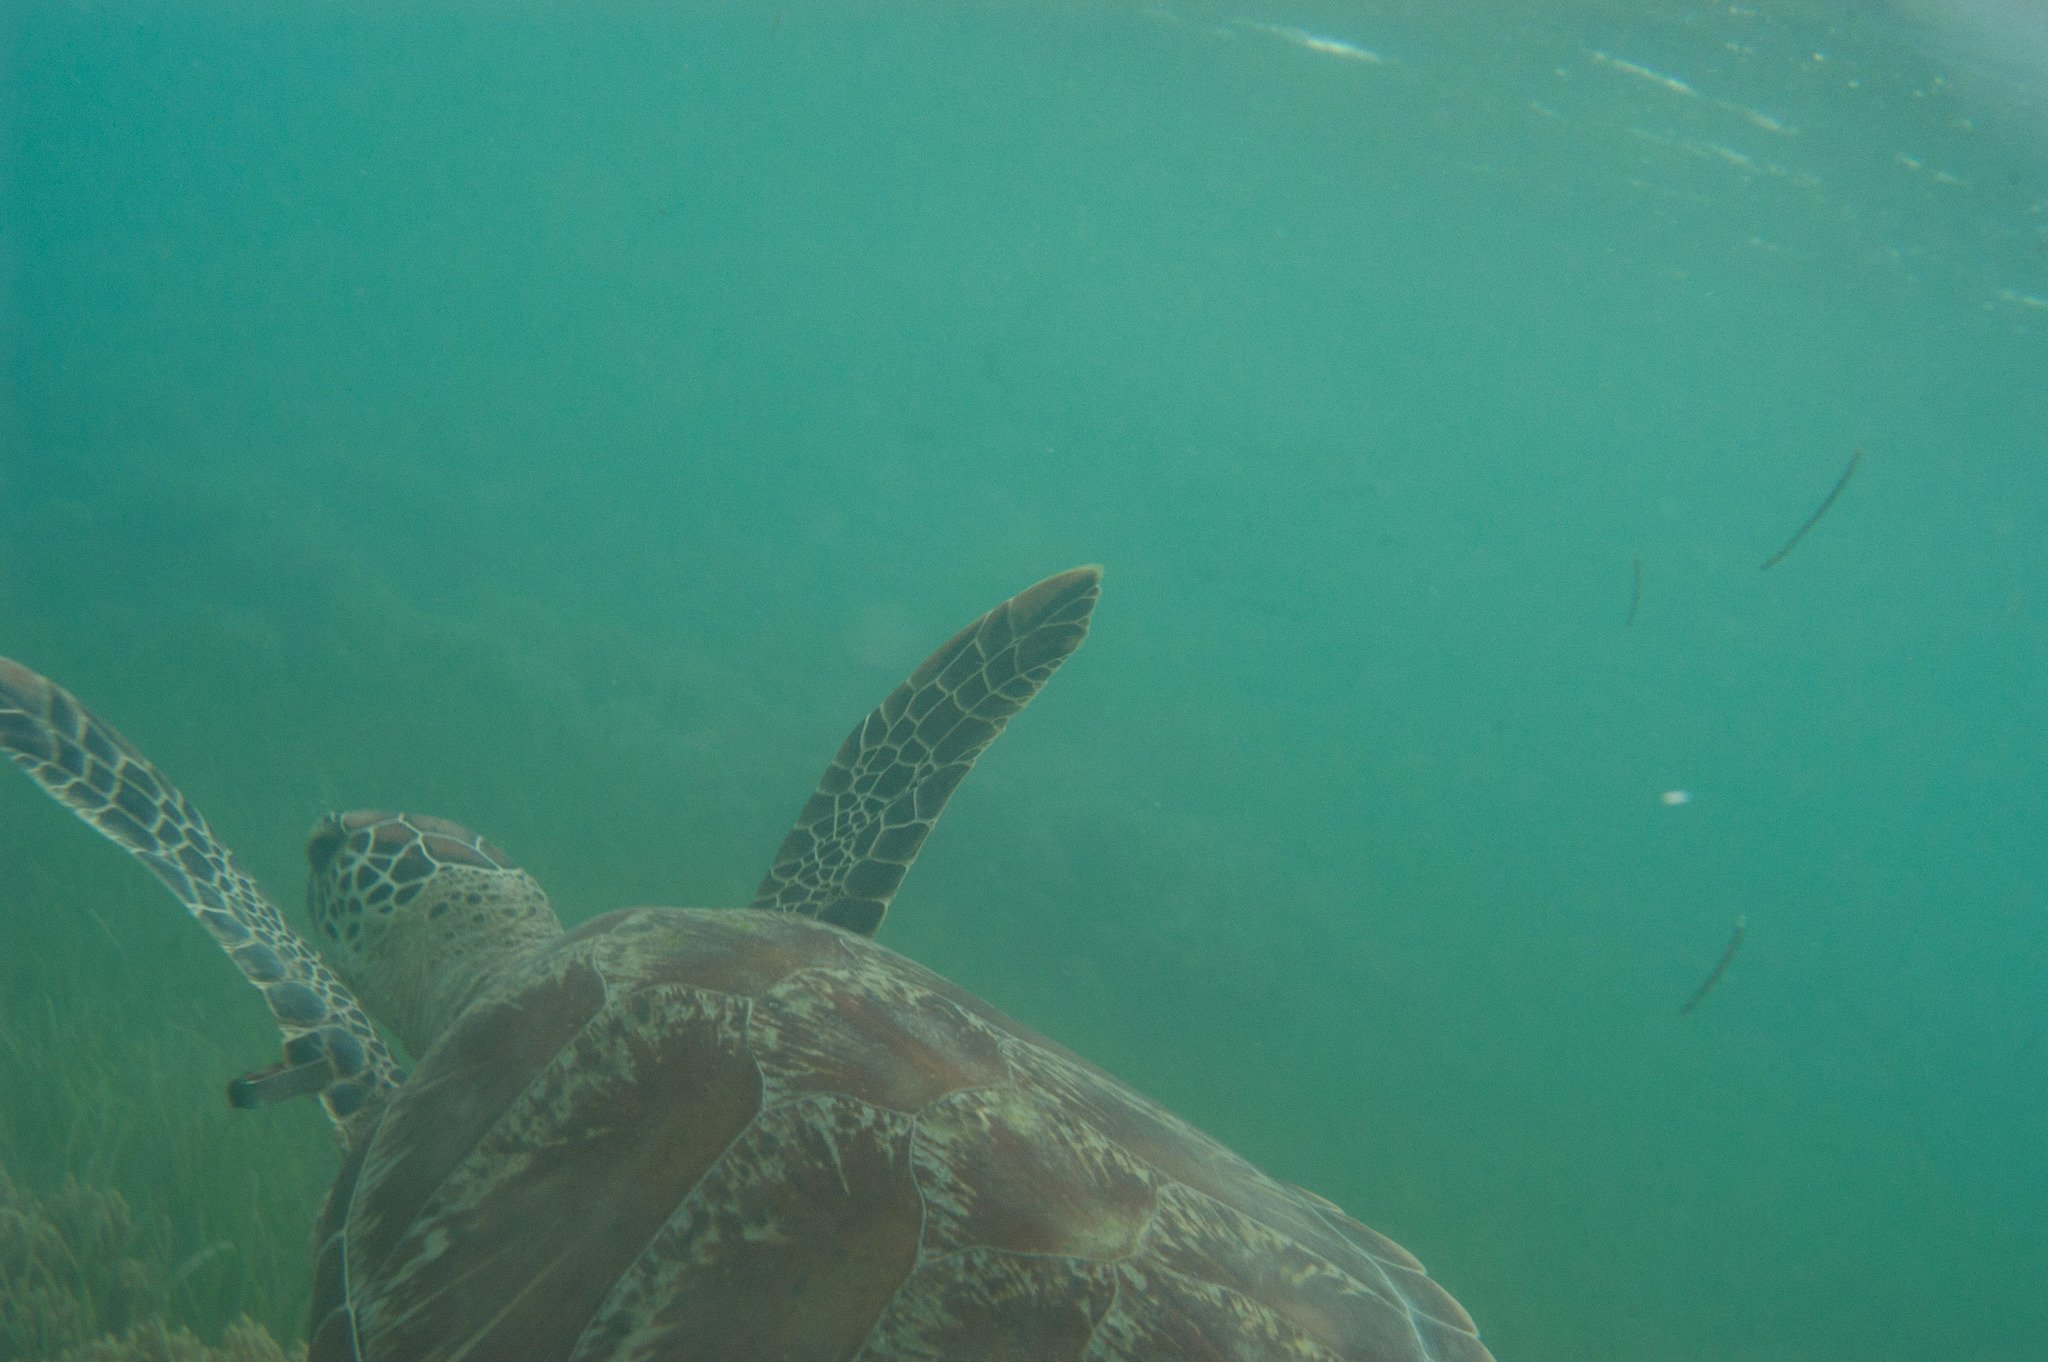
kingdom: Animalia
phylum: Chordata
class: Testudines
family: Cheloniidae
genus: Chelonia
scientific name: Chelonia mydas
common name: Green turtle
